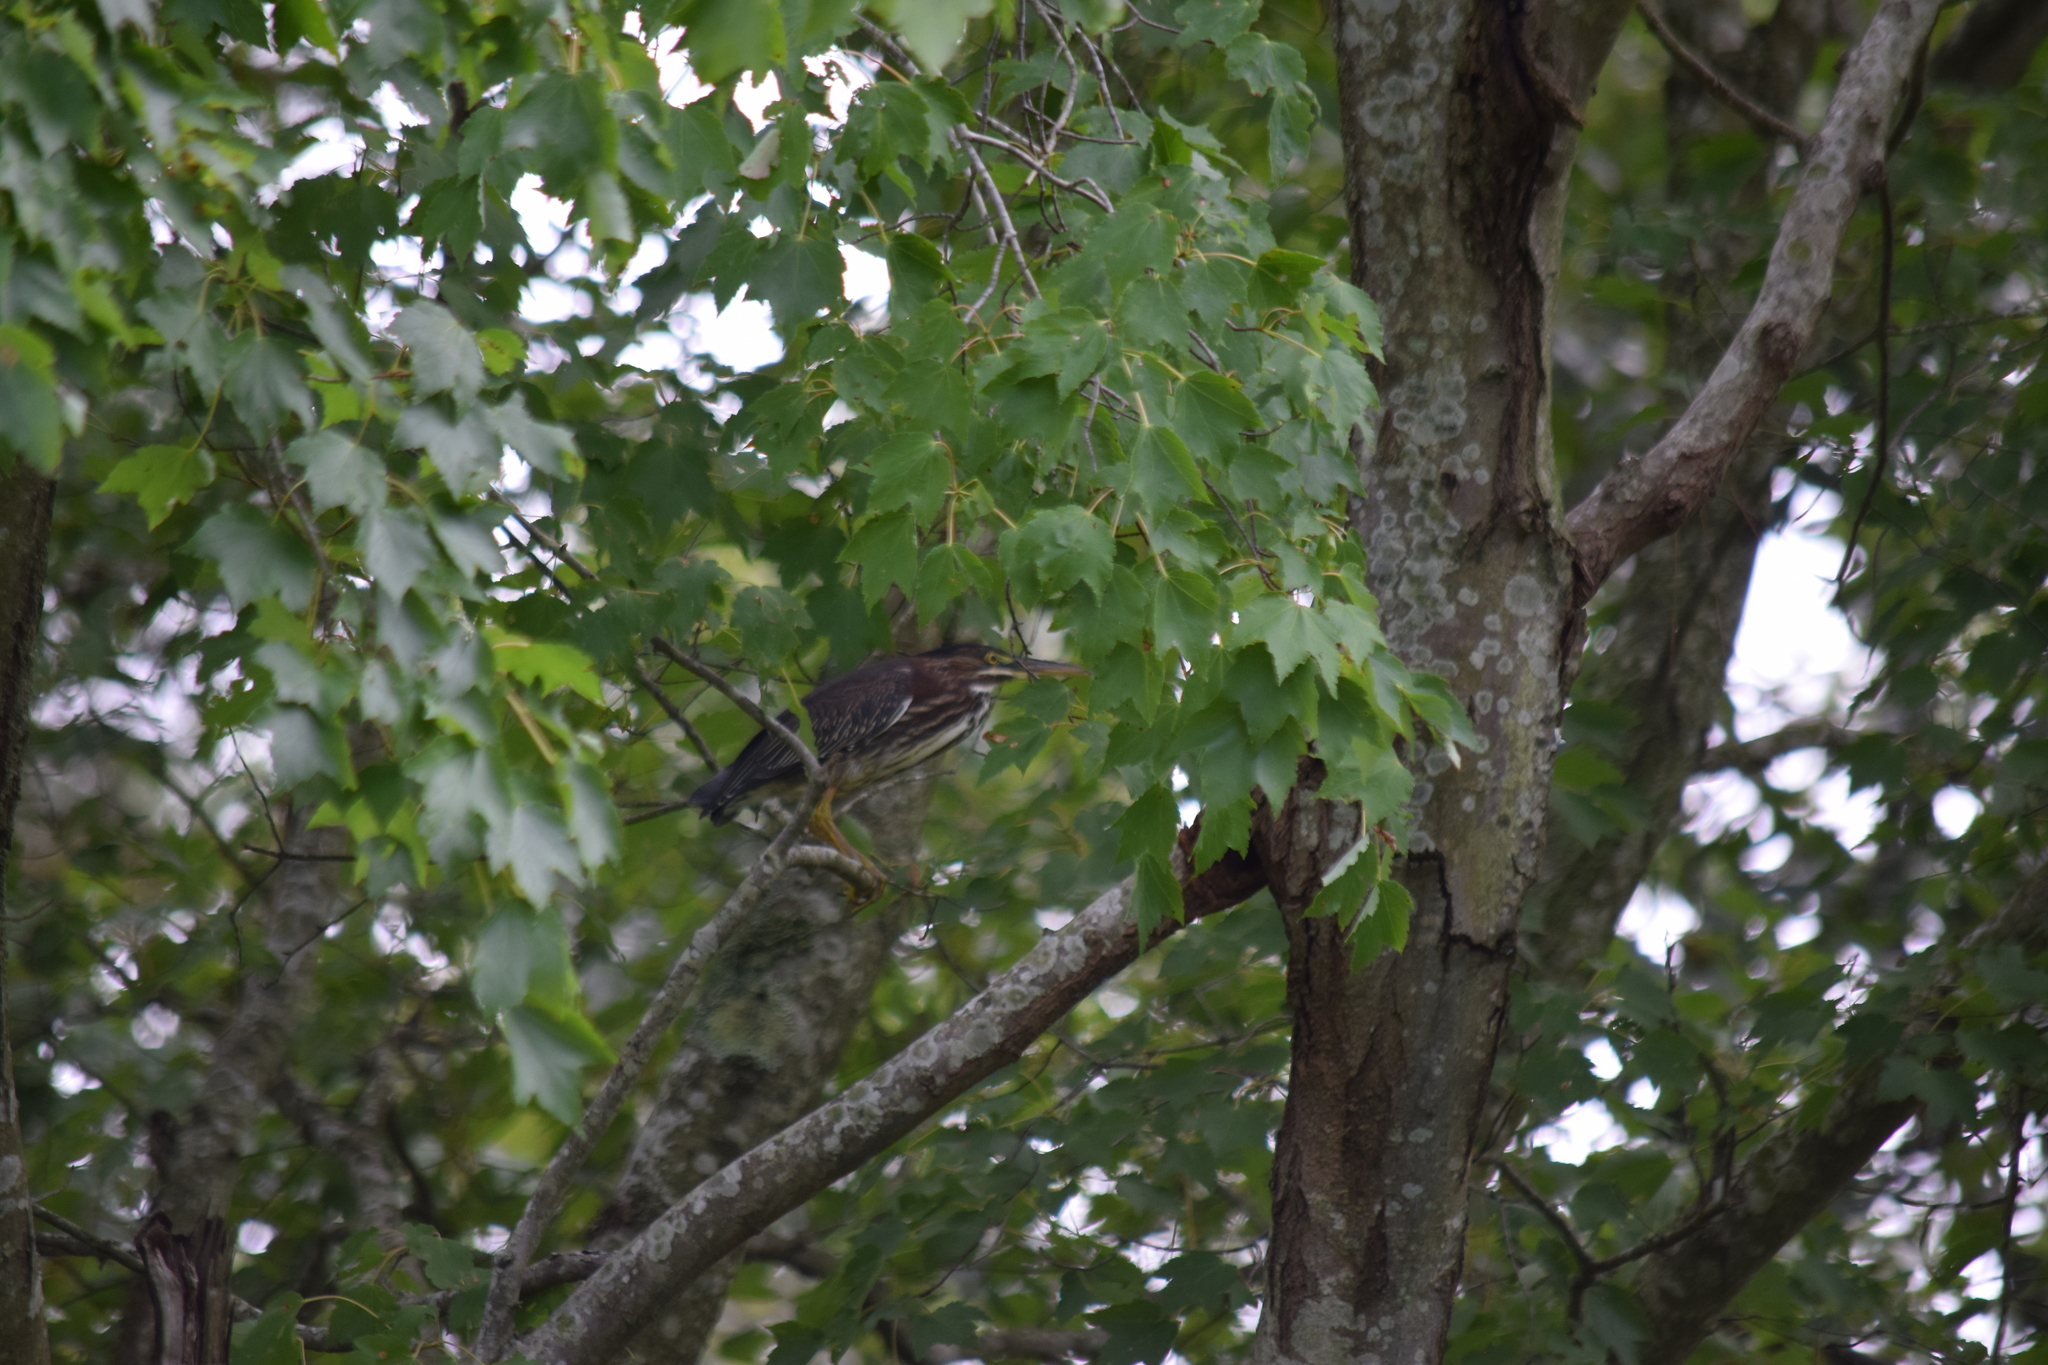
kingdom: Animalia
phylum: Chordata
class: Aves
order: Pelecaniformes
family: Ardeidae
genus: Butorides
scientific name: Butorides virescens
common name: Green heron
